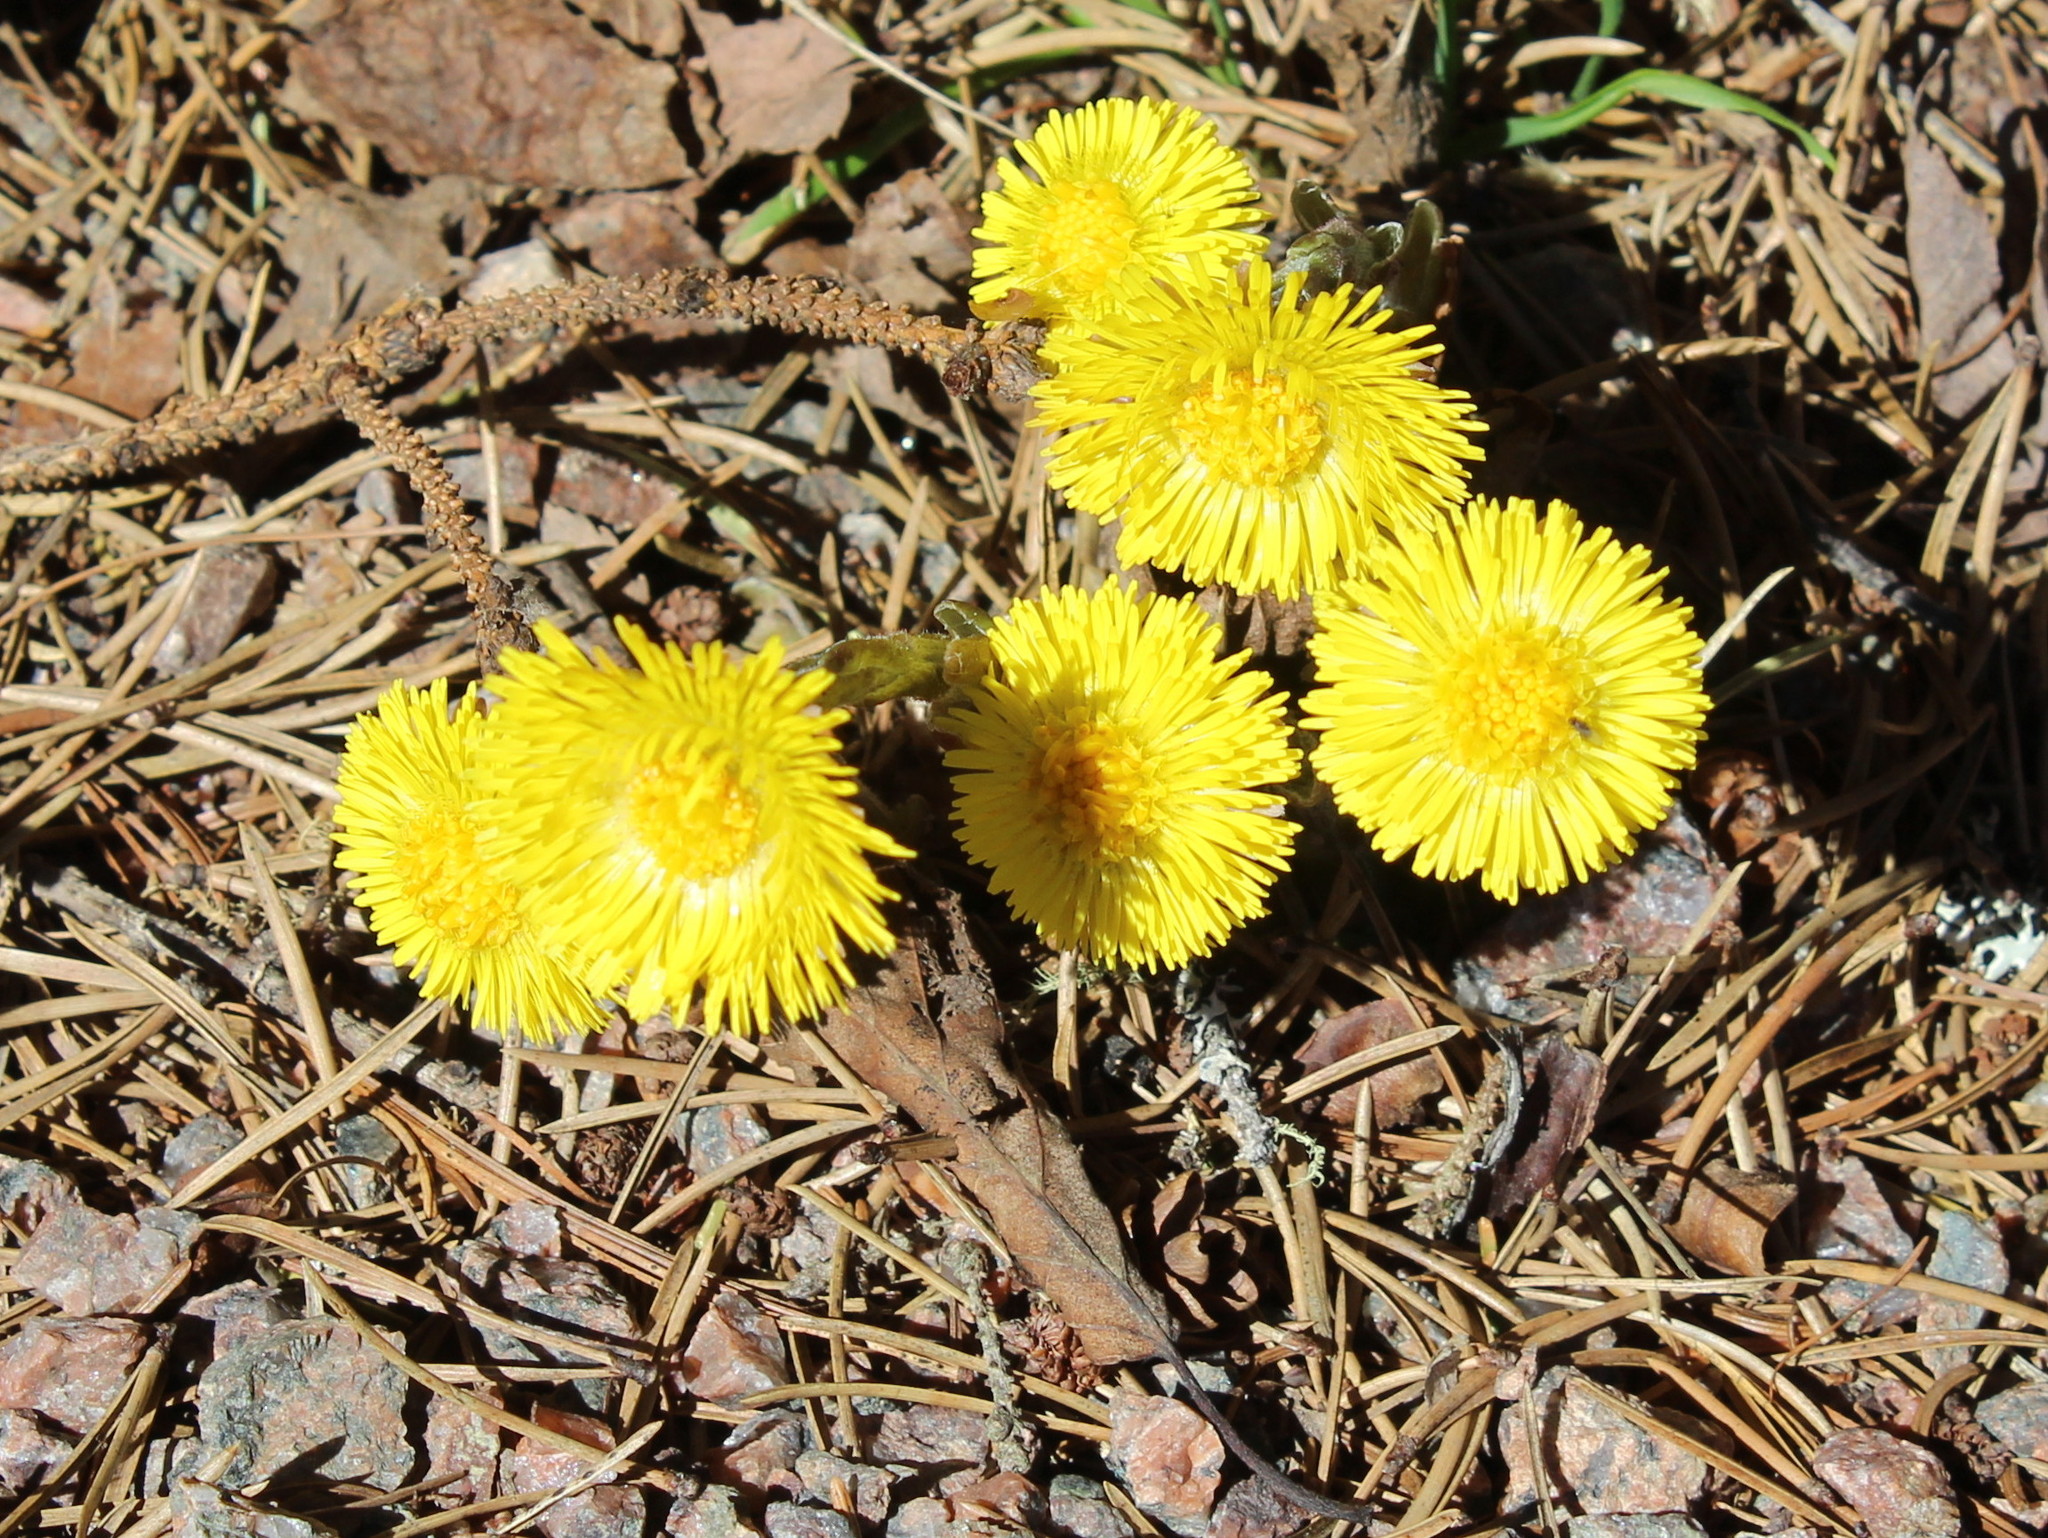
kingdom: Plantae
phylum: Tracheophyta
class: Magnoliopsida
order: Asterales
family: Asteraceae
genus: Tussilago
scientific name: Tussilago farfara
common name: Coltsfoot
